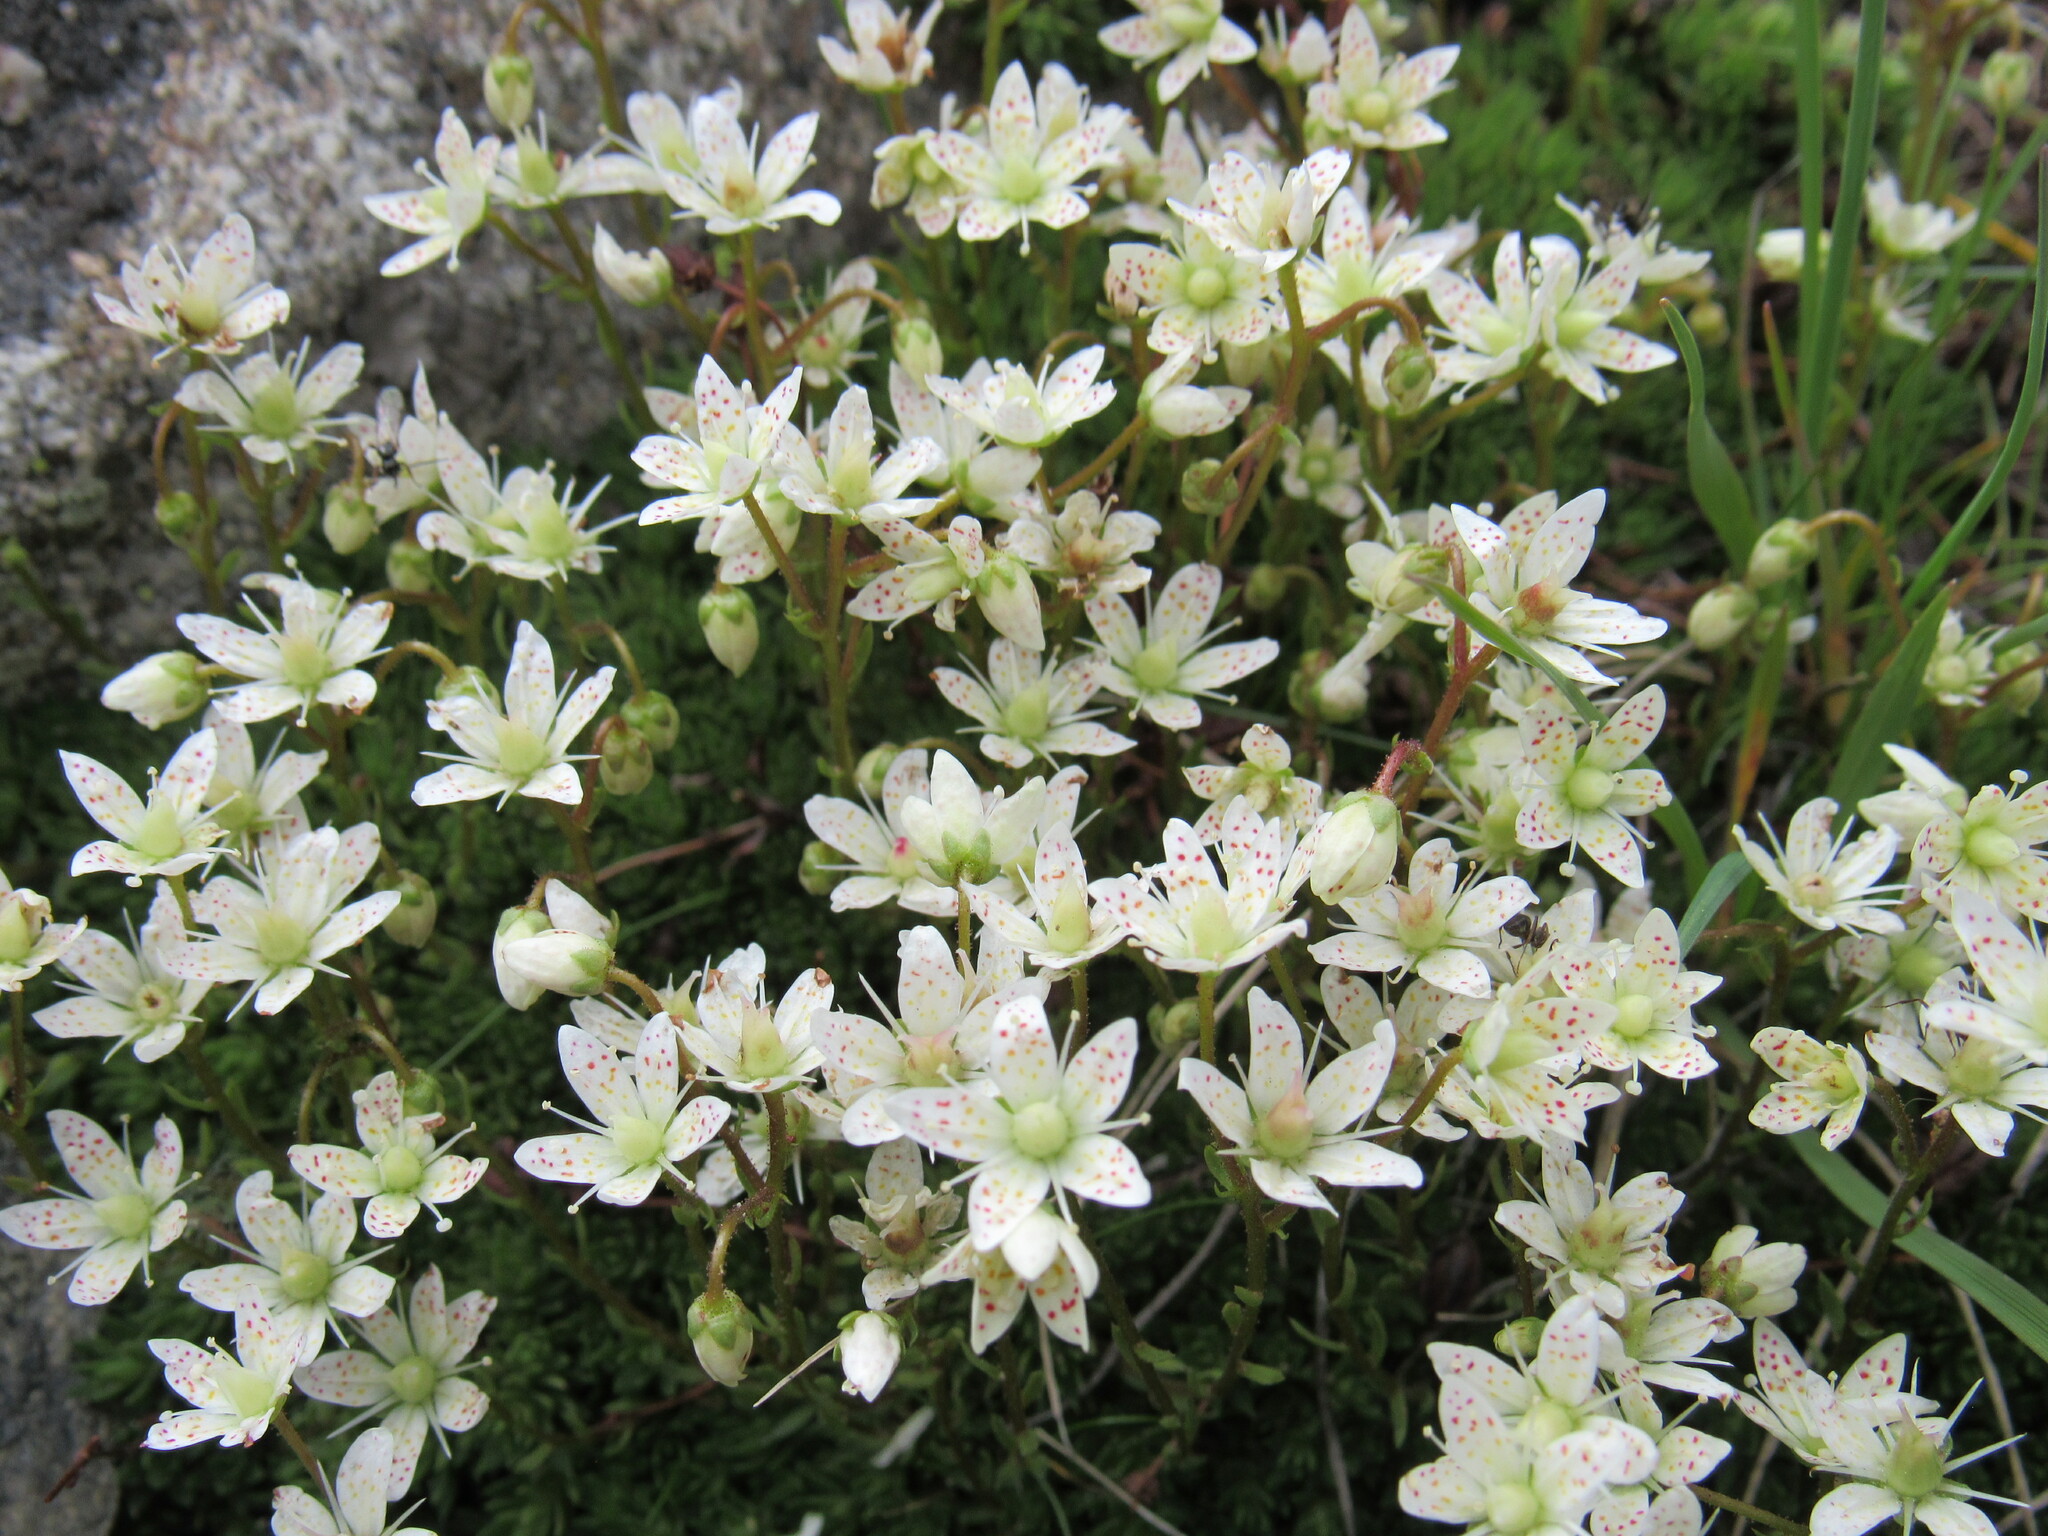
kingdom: Plantae
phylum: Tracheophyta
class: Magnoliopsida
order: Saxifragales
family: Saxifragaceae
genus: Saxifraga
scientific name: Saxifraga bronchialis
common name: Matted saxifrage
